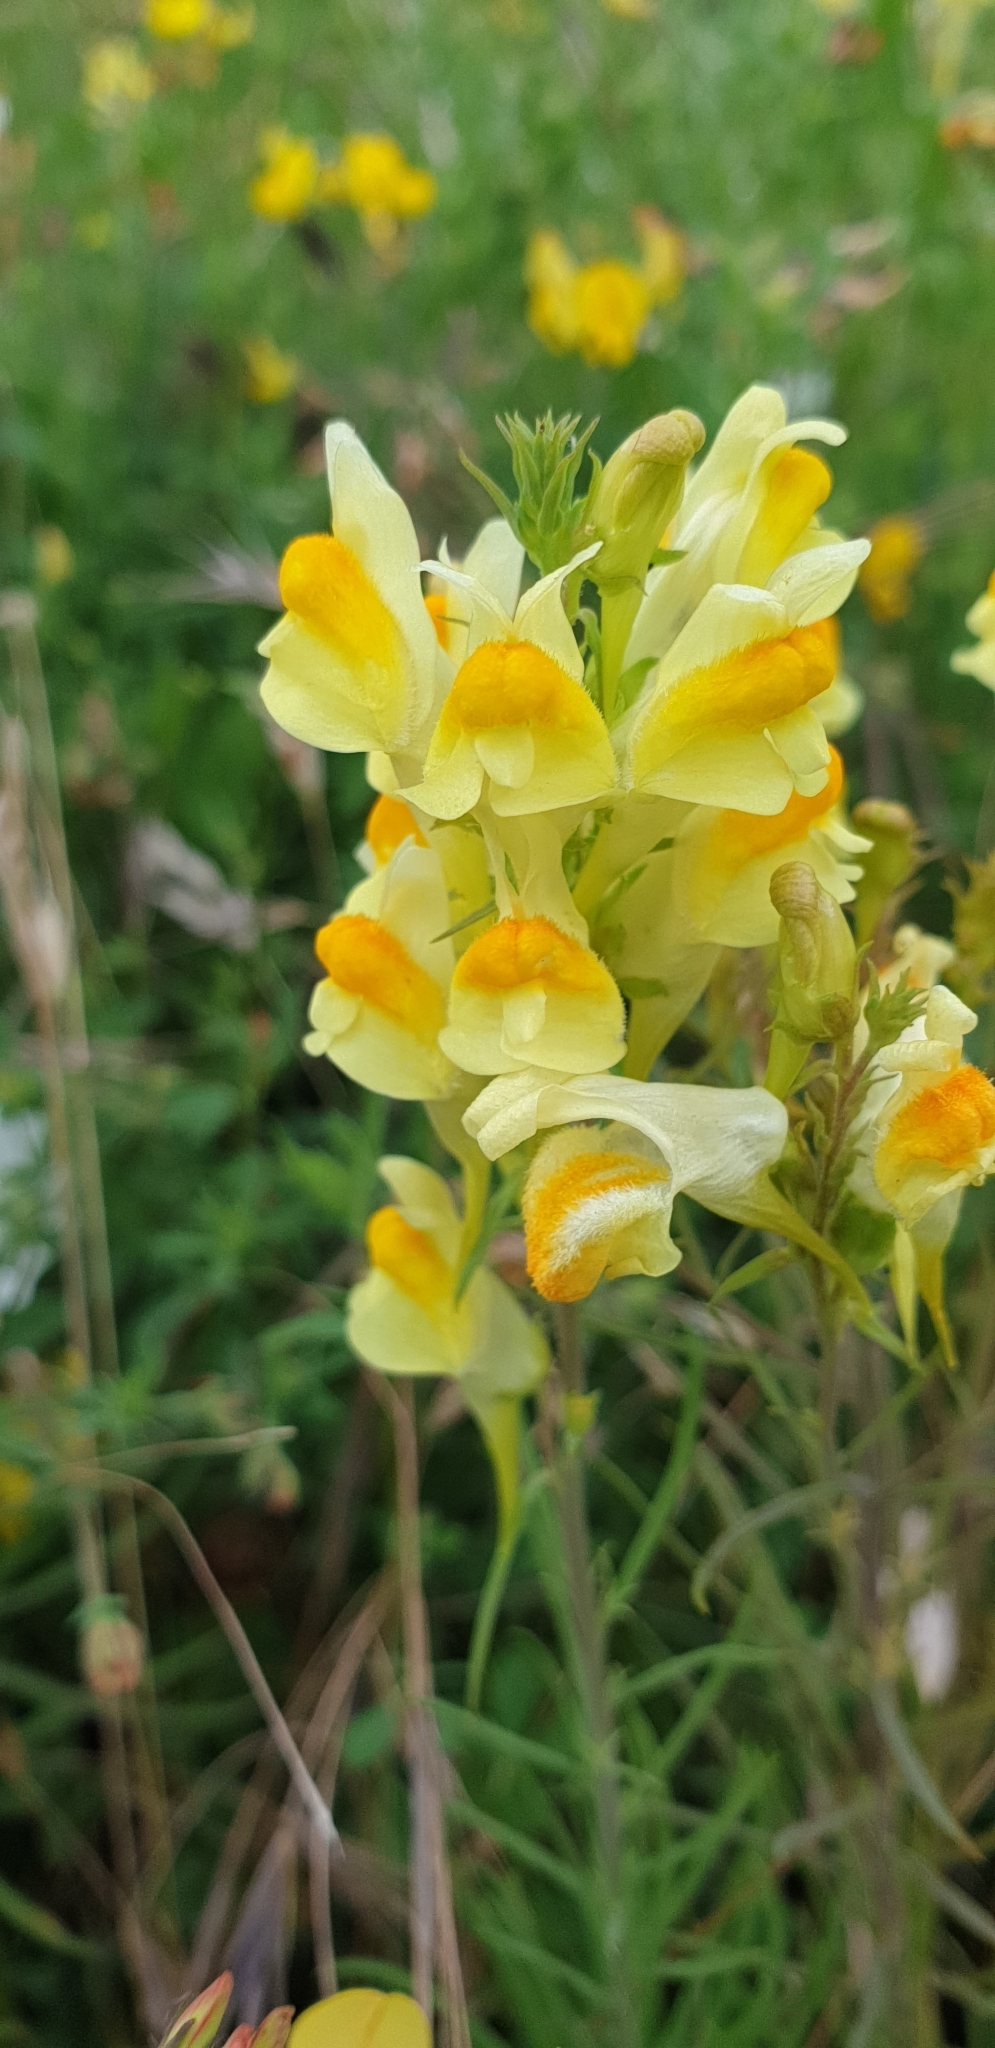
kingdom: Plantae
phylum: Tracheophyta
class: Magnoliopsida
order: Lamiales
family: Plantaginaceae
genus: Linaria
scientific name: Linaria vulgaris
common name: Butter and eggs
